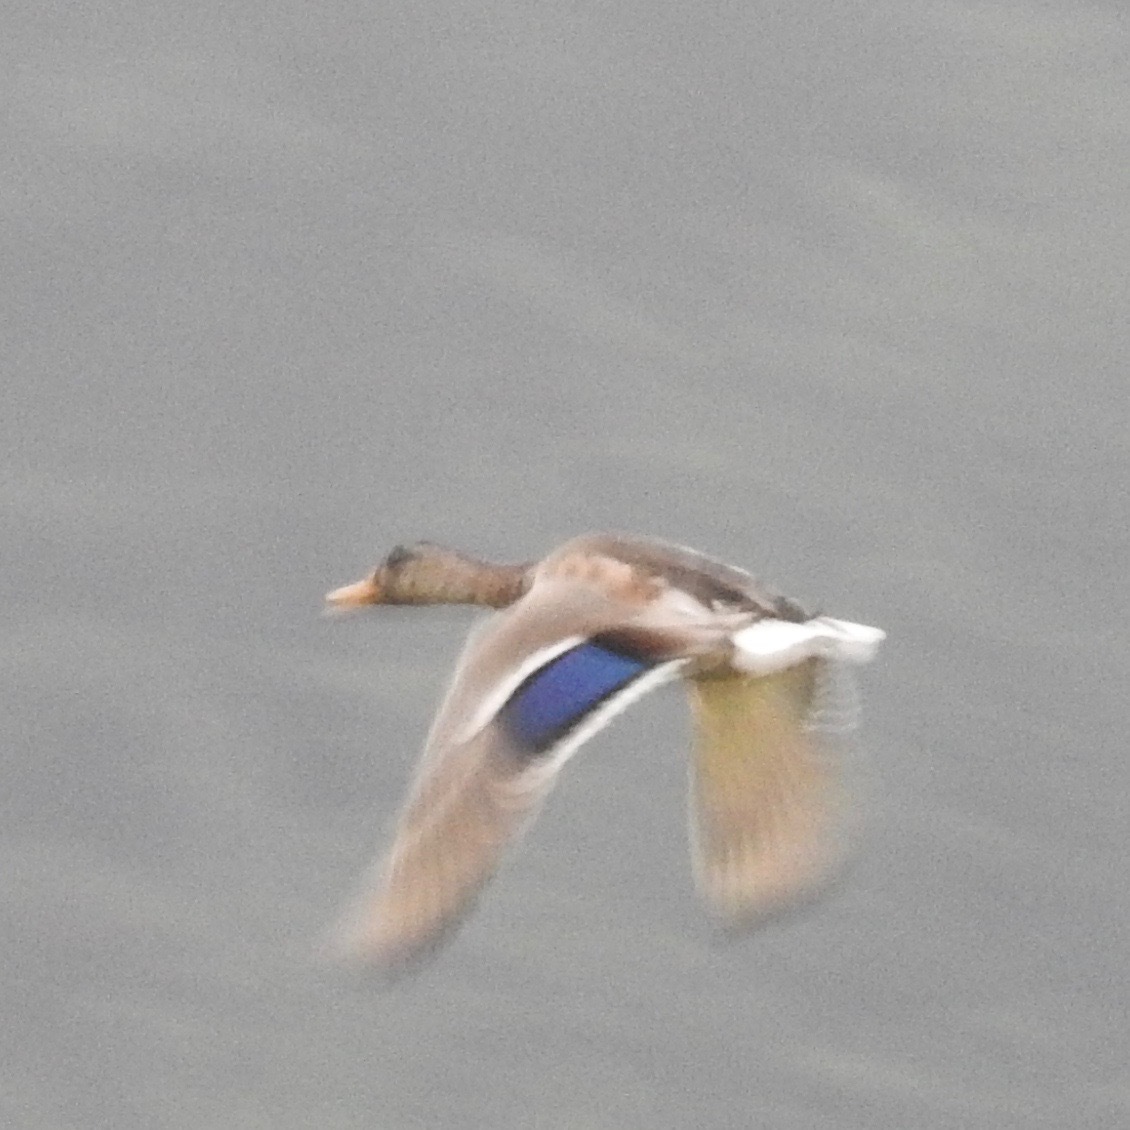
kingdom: Animalia
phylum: Chordata
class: Aves
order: Anseriformes
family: Anatidae
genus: Anas
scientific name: Anas platyrhynchos
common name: Mallard
